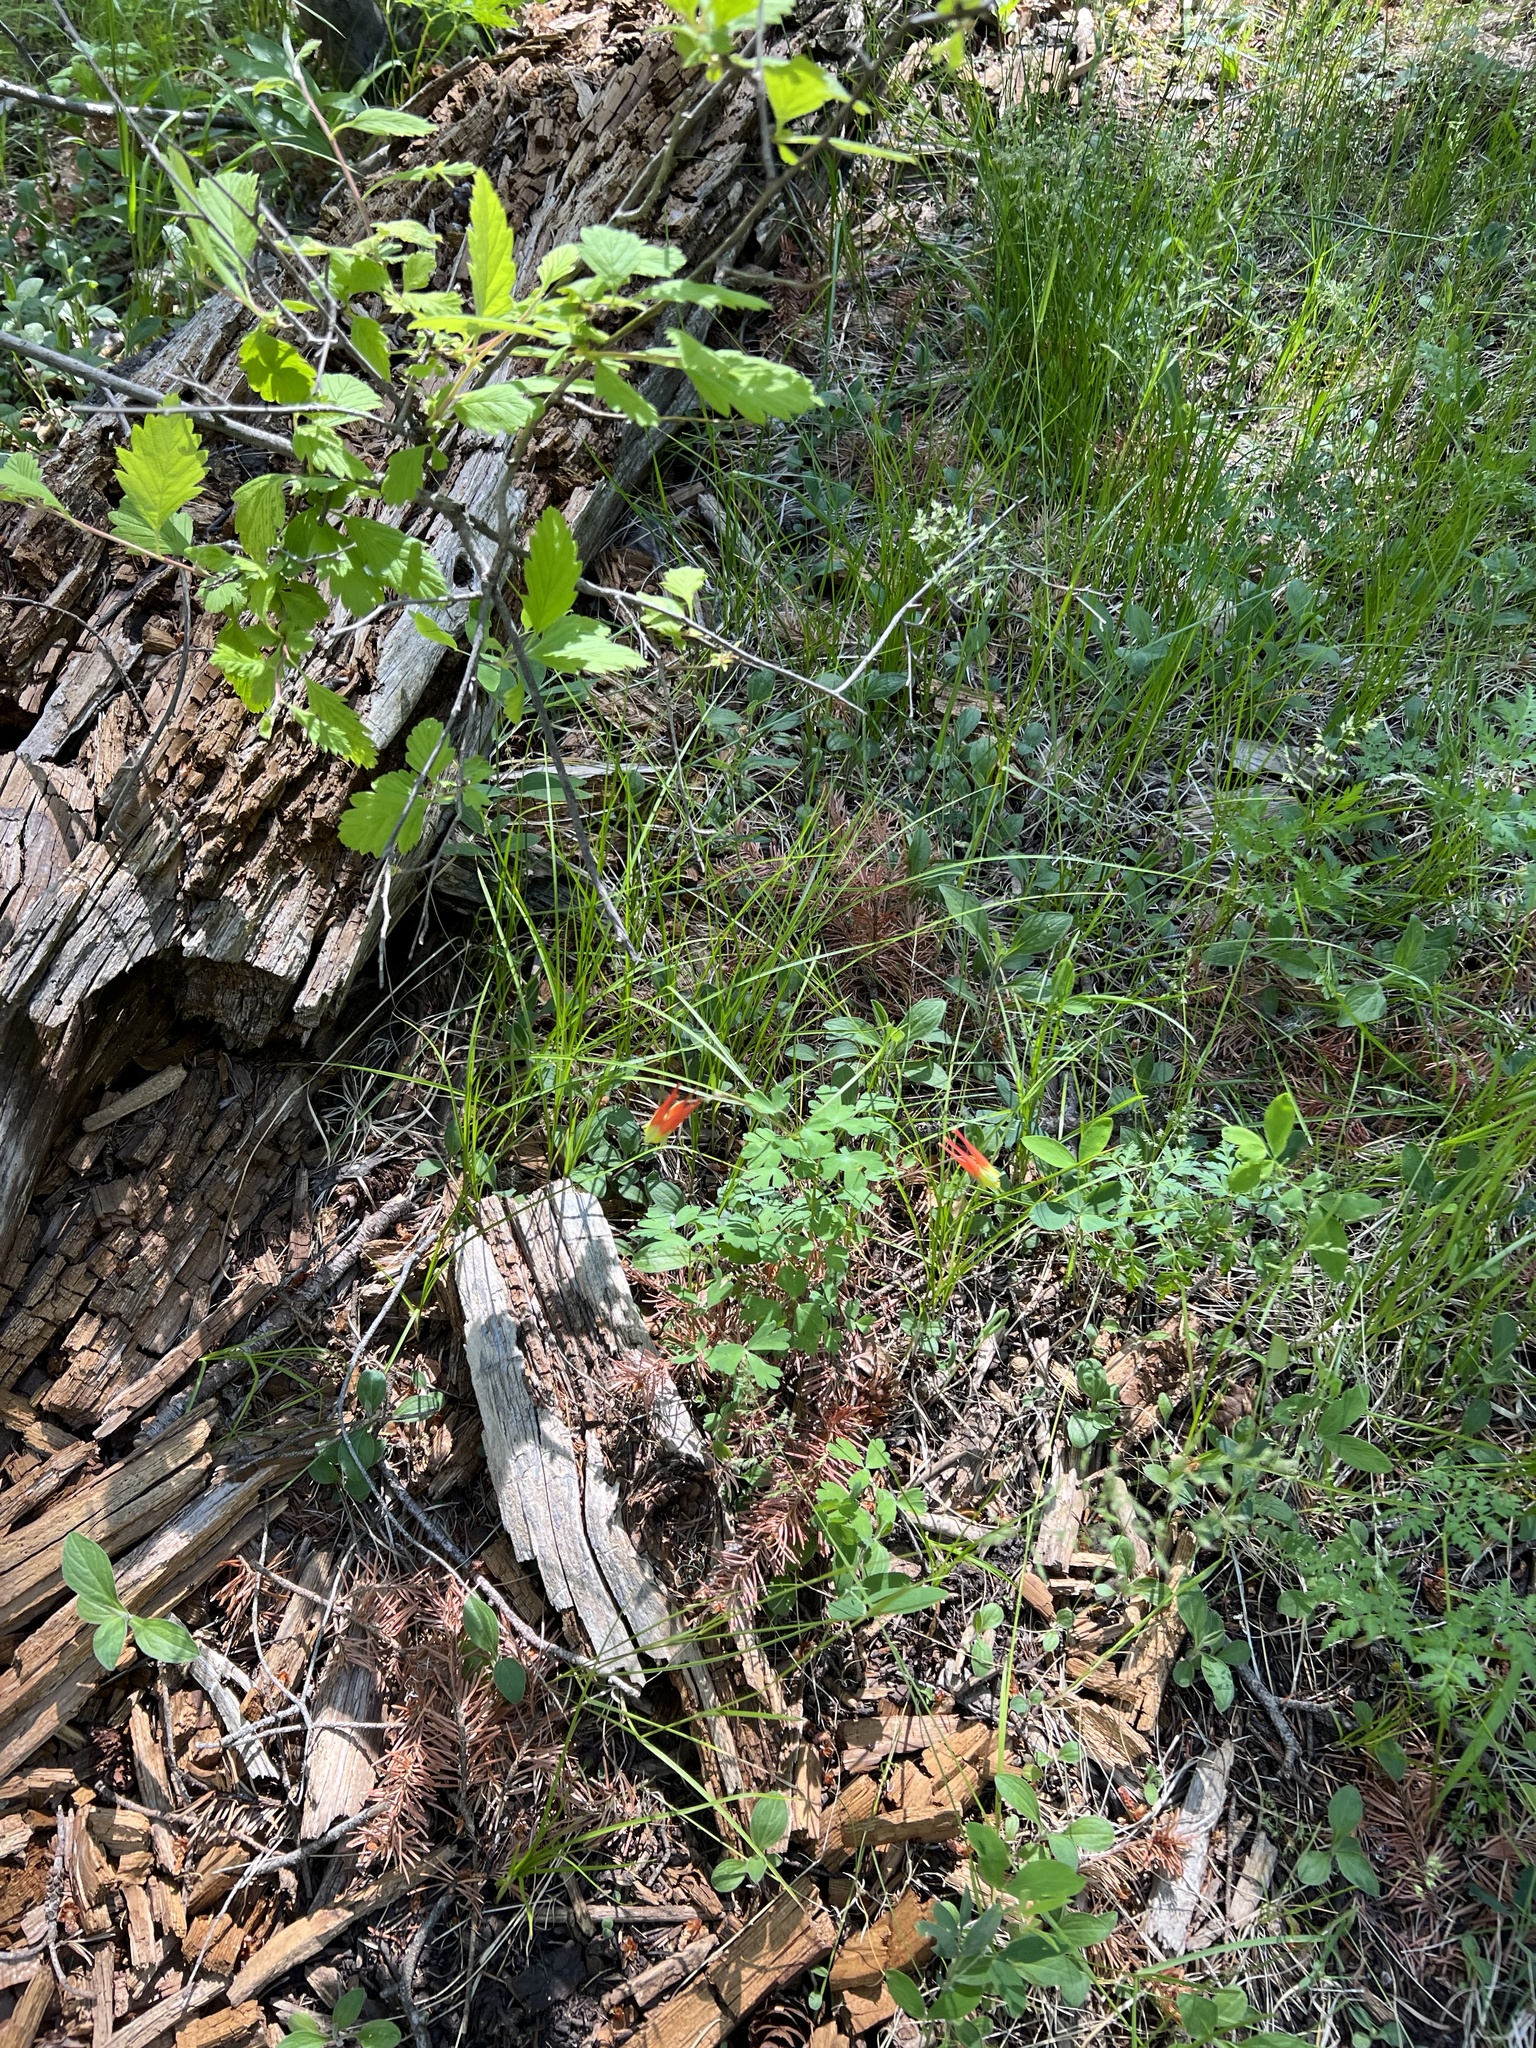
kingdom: Plantae
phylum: Tracheophyta
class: Magnoliopsida
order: Ranunculales
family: Ranunculaceae
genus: Aquilegia
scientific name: Aquilegia elegantula
